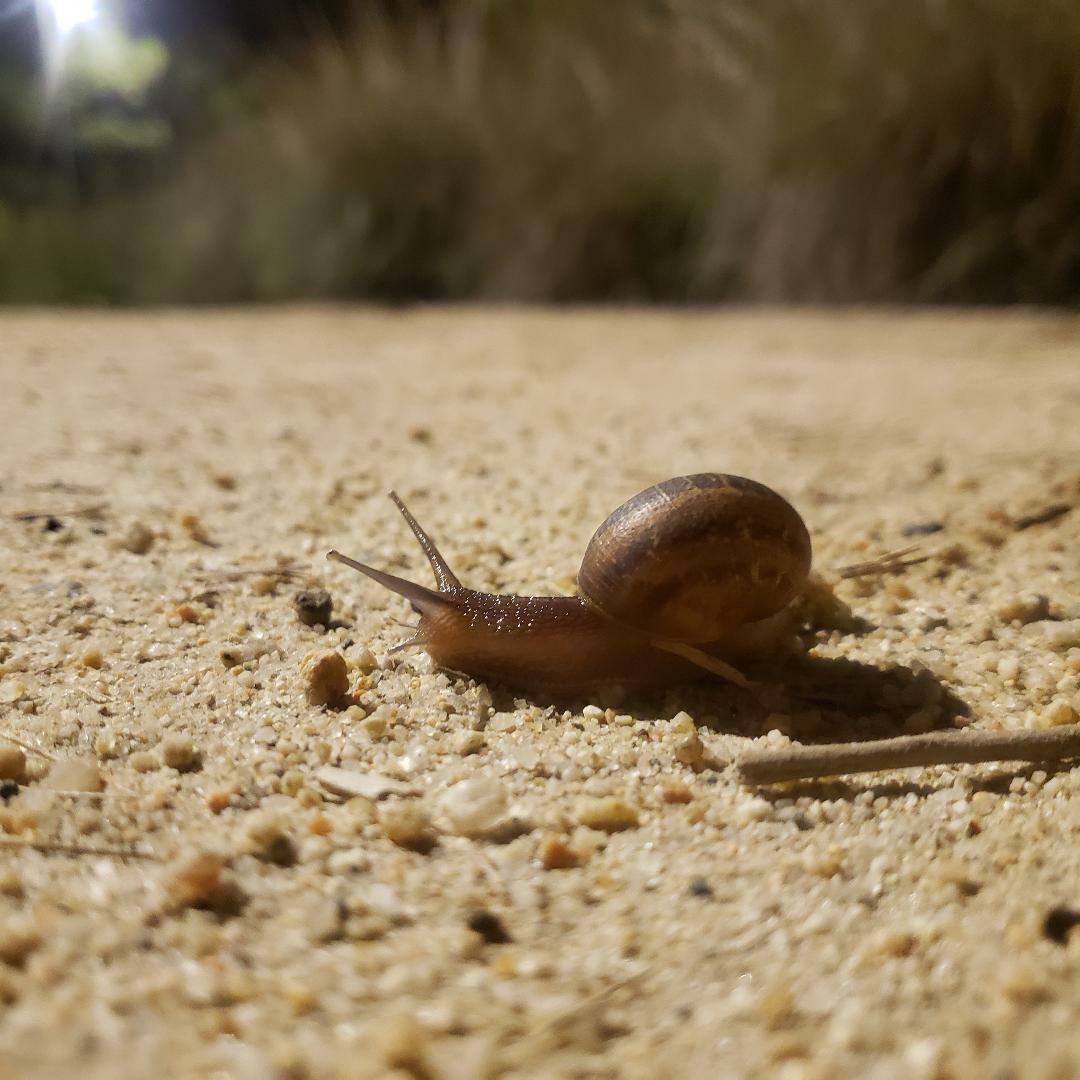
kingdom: Animalia
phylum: Mollusca
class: Gastropoda
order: Stylommatophora
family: Helicidae
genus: Cornu
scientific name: Cornu aspersum
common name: Brown garden snail
